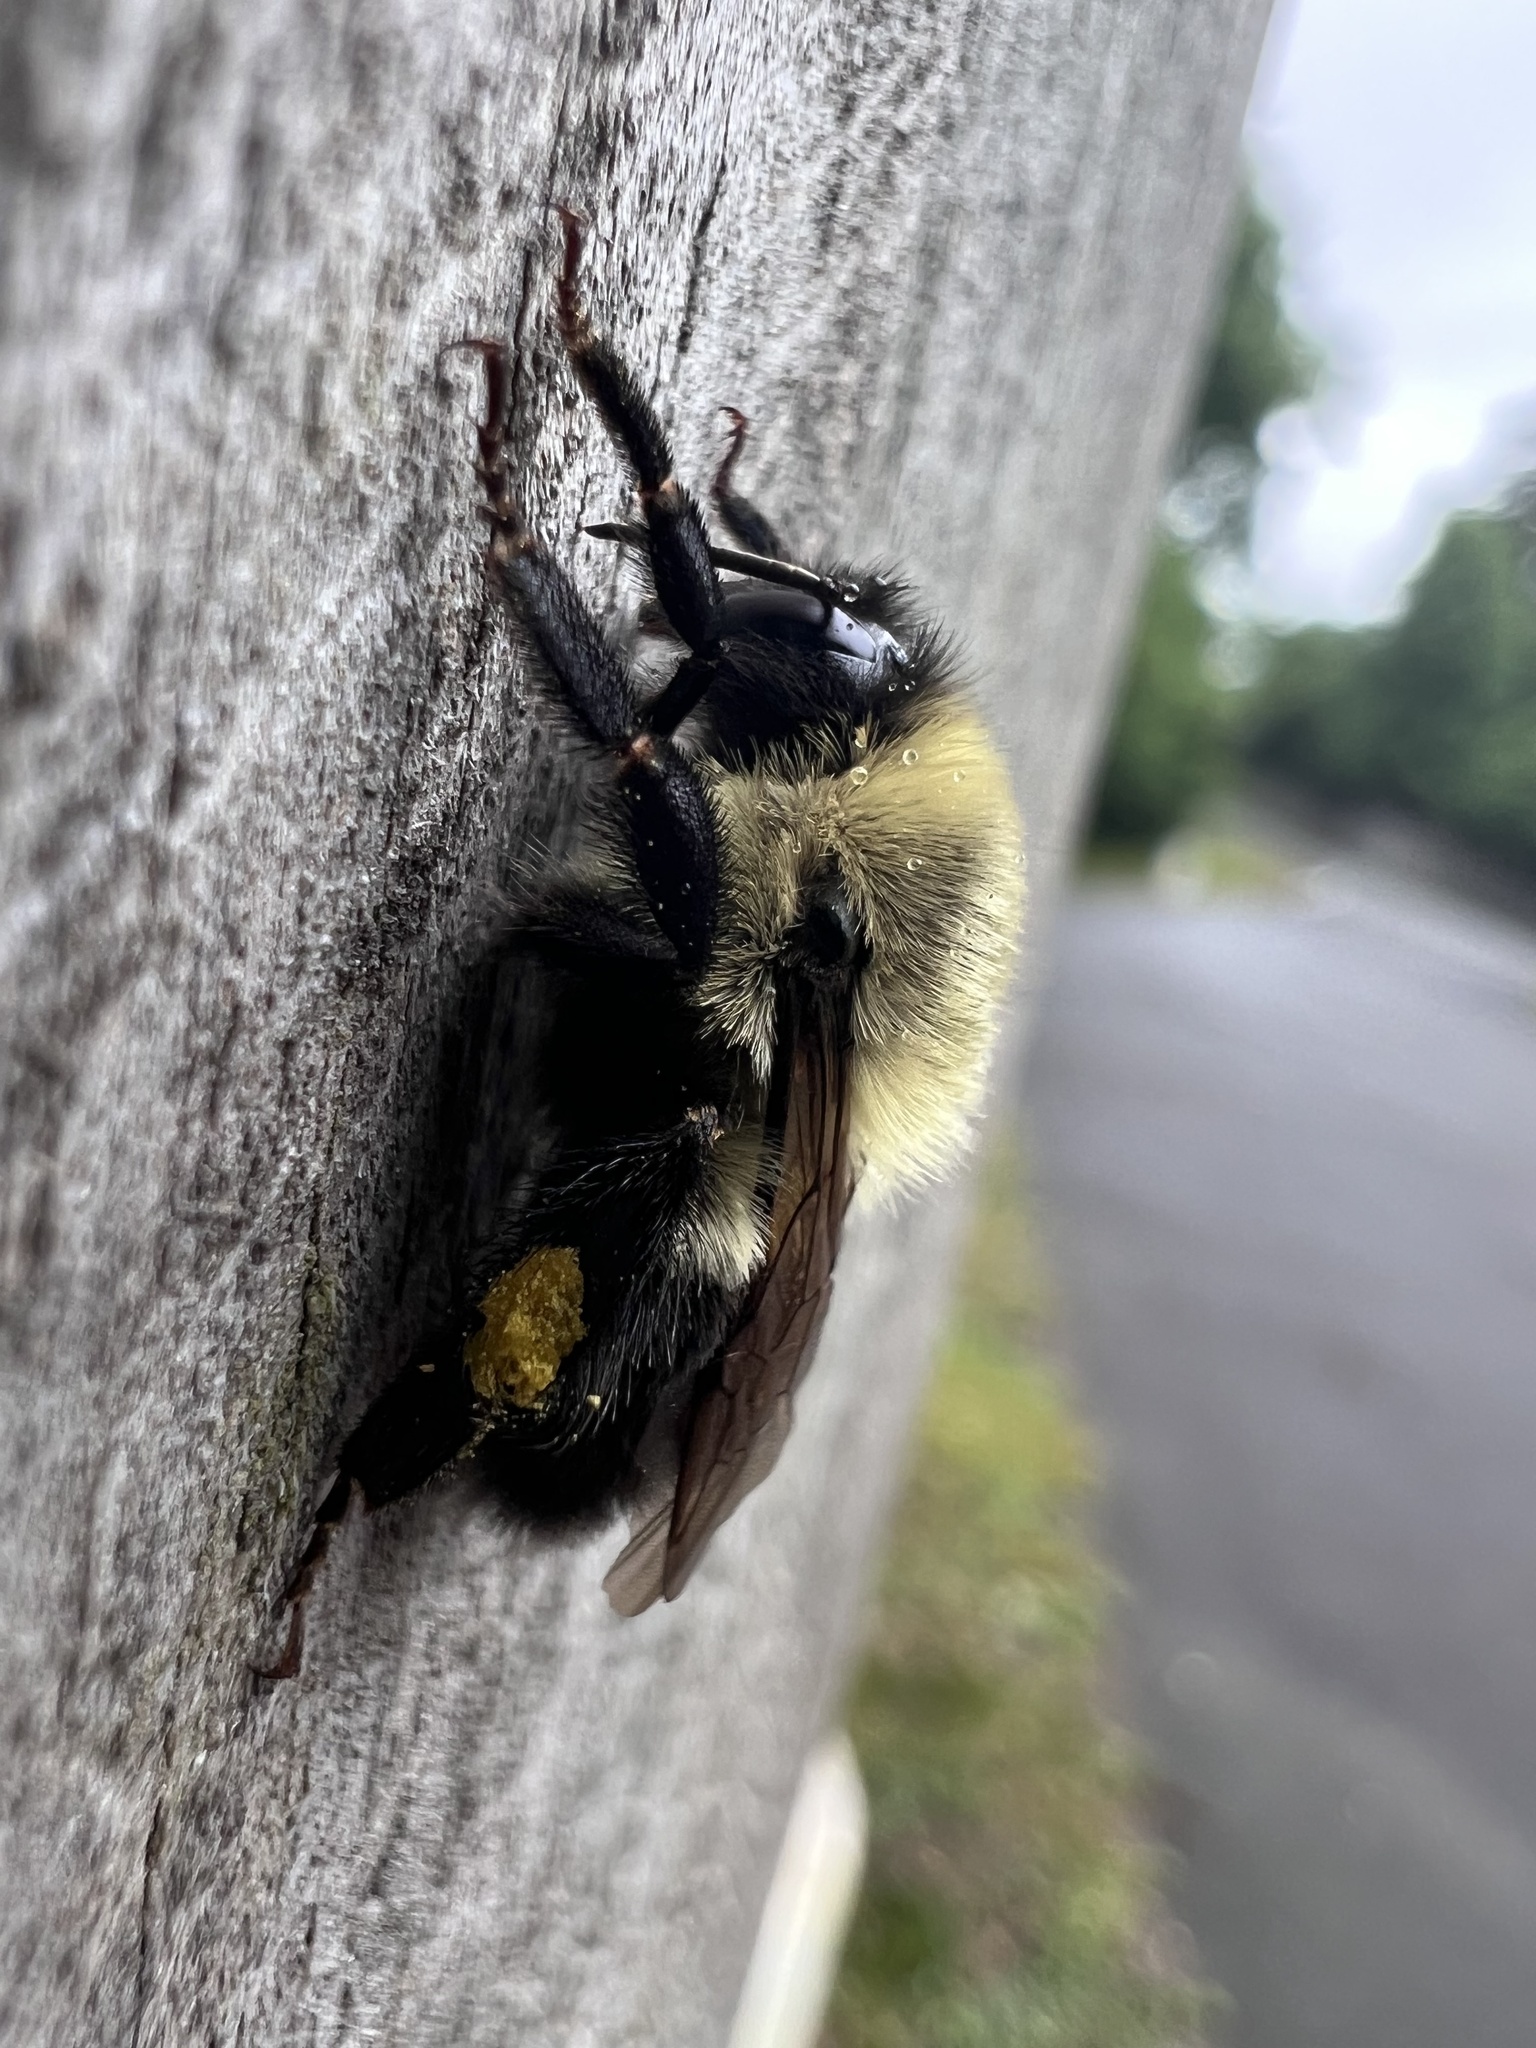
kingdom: Animalia
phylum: Arthropoda
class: Insecta
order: Hymenoptera
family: Apidae
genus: Bombus
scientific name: Bombus impatiens
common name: Common eastern bumble bee
